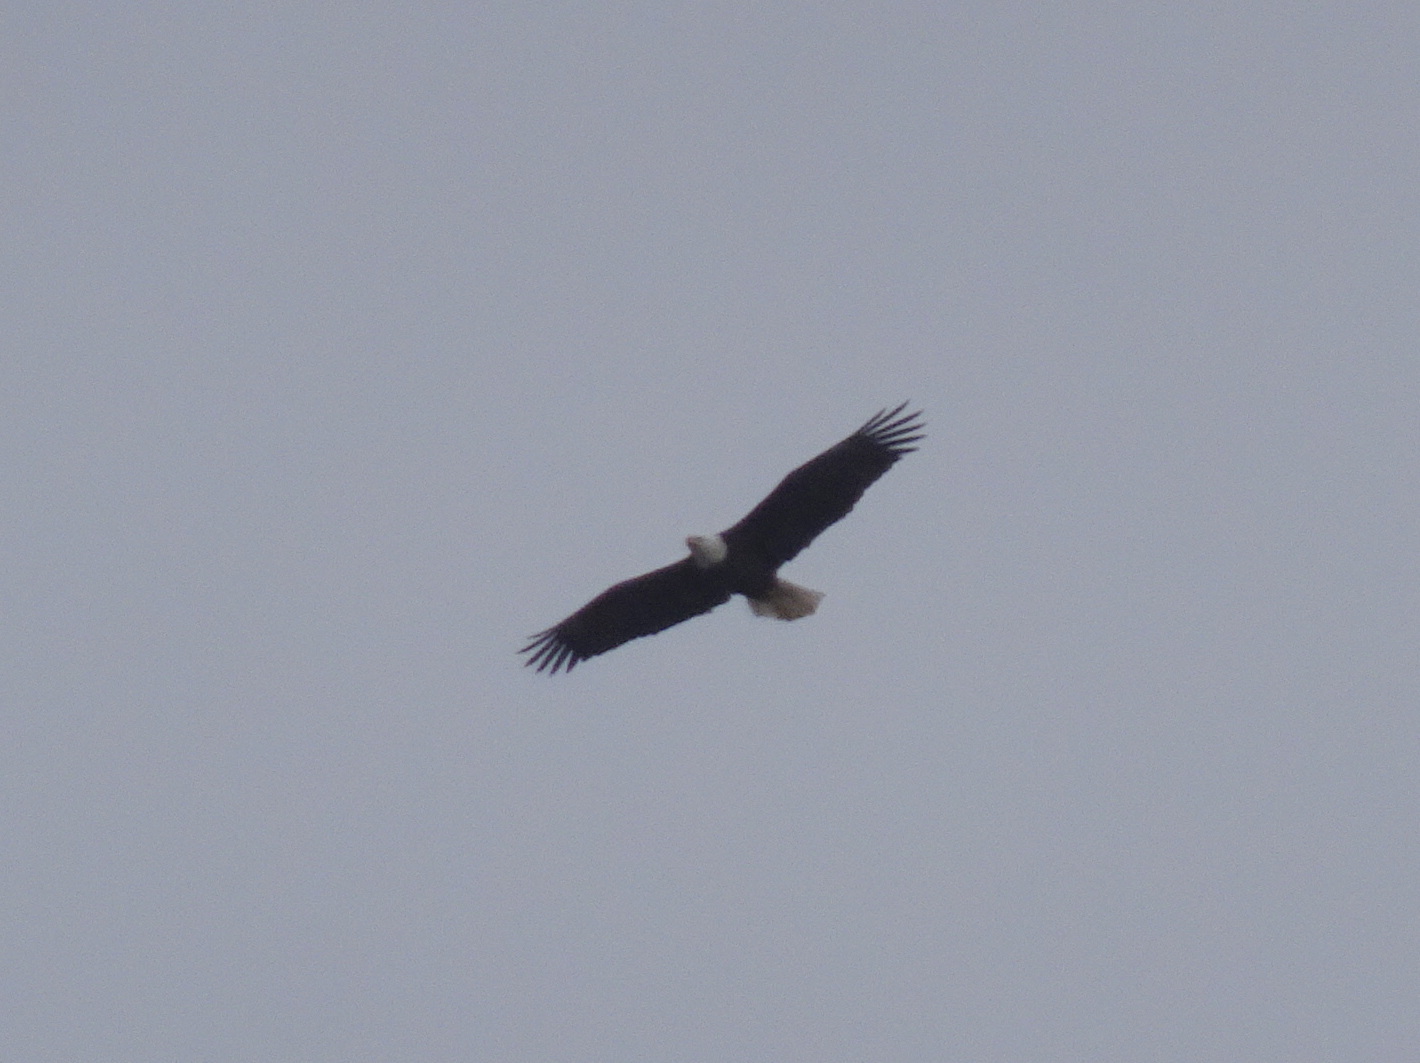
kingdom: Animalia
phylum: Chordata
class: Aves
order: Accipitriformes
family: Accipitridae
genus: Haliaeetus
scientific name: Haliaeetus leucocephalus
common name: Bald eagle
